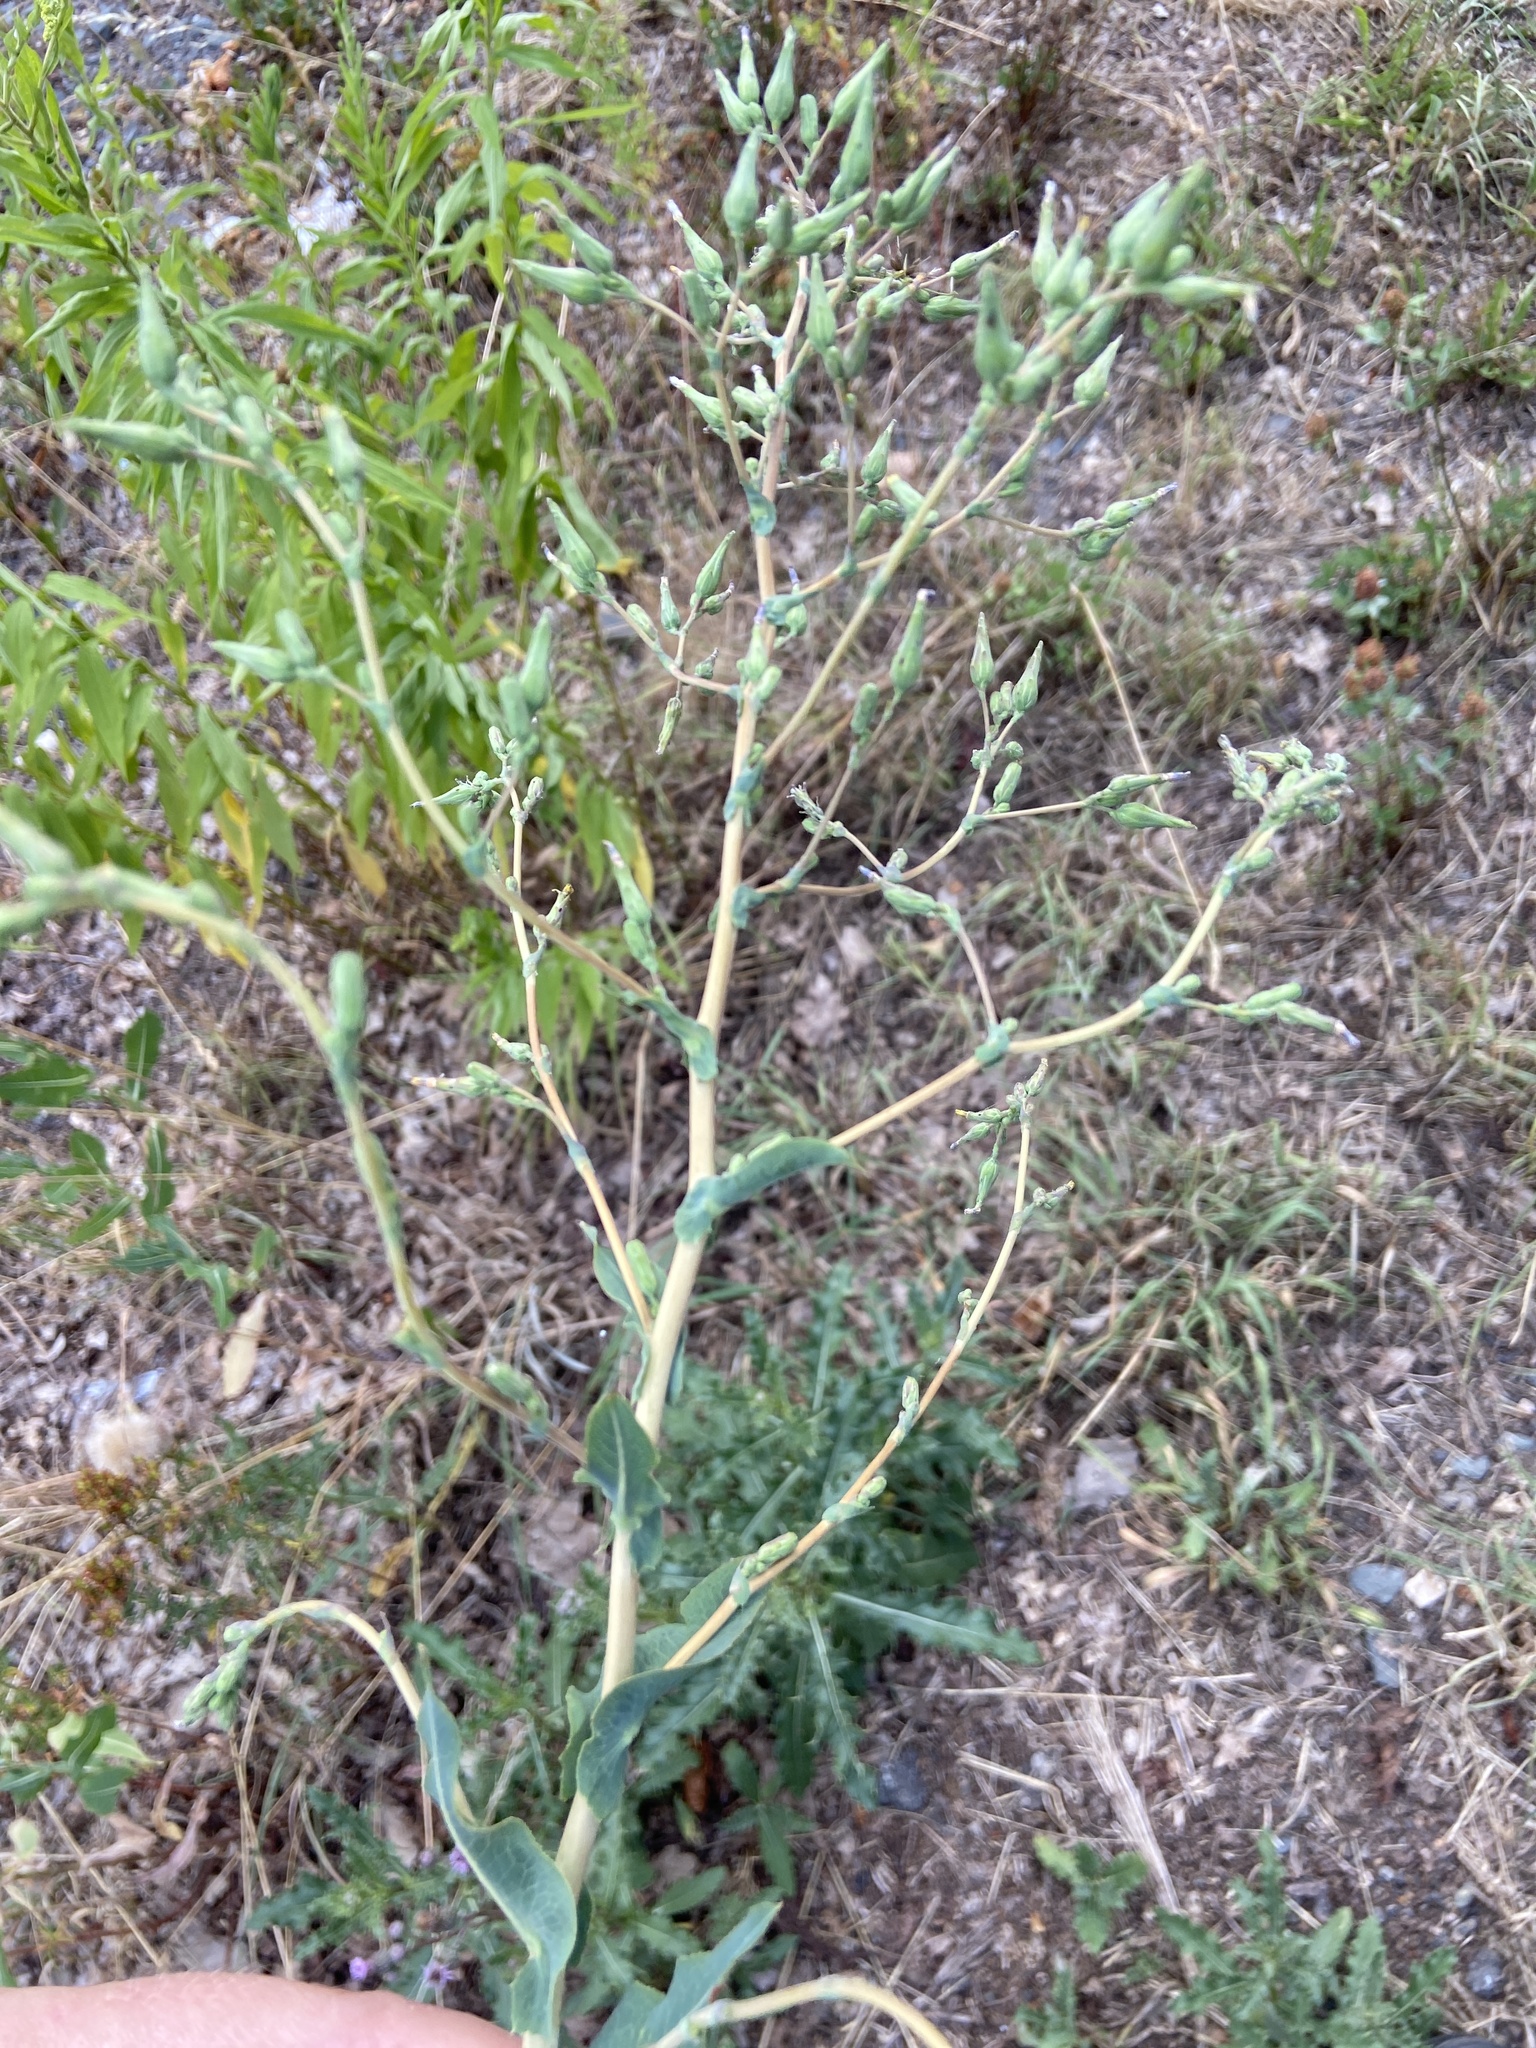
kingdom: Plantae
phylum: Tracheophyta
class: Magnoliopsida
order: Asterales
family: Asteraceae
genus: Lactuca
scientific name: Lactuca serriola
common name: Prickly lettuce
